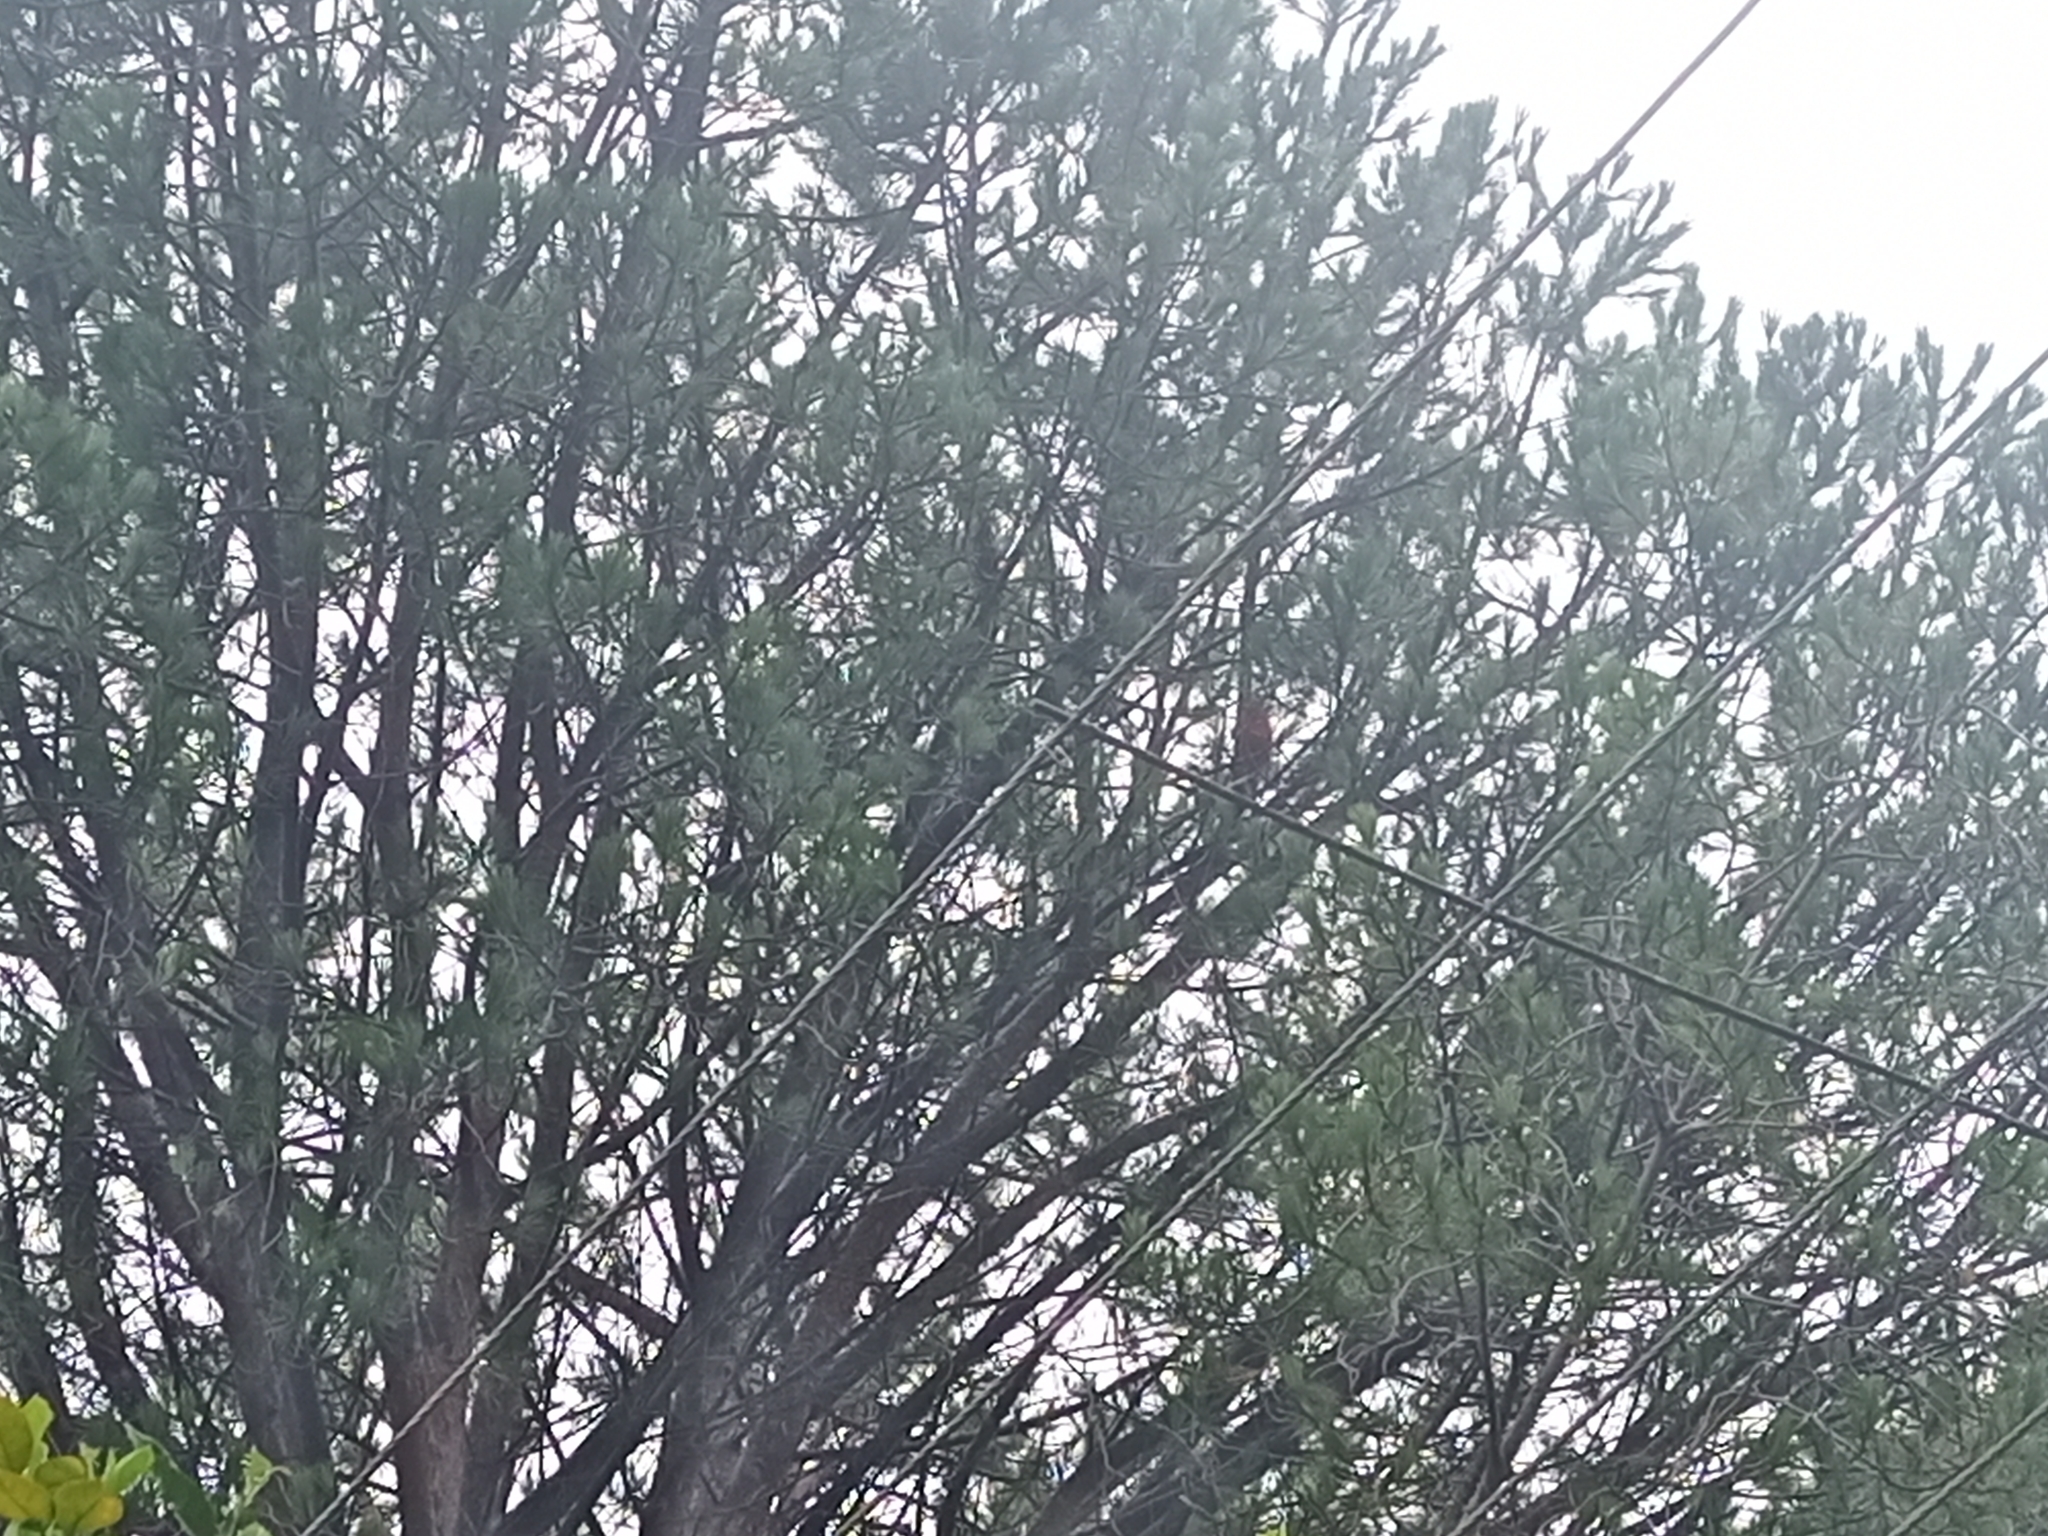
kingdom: Animalia
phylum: Chordata
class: Aves
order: Psittaciformes
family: Psittacidae
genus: Platycercus
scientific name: Platycercus elegans
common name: Crimson rosella
